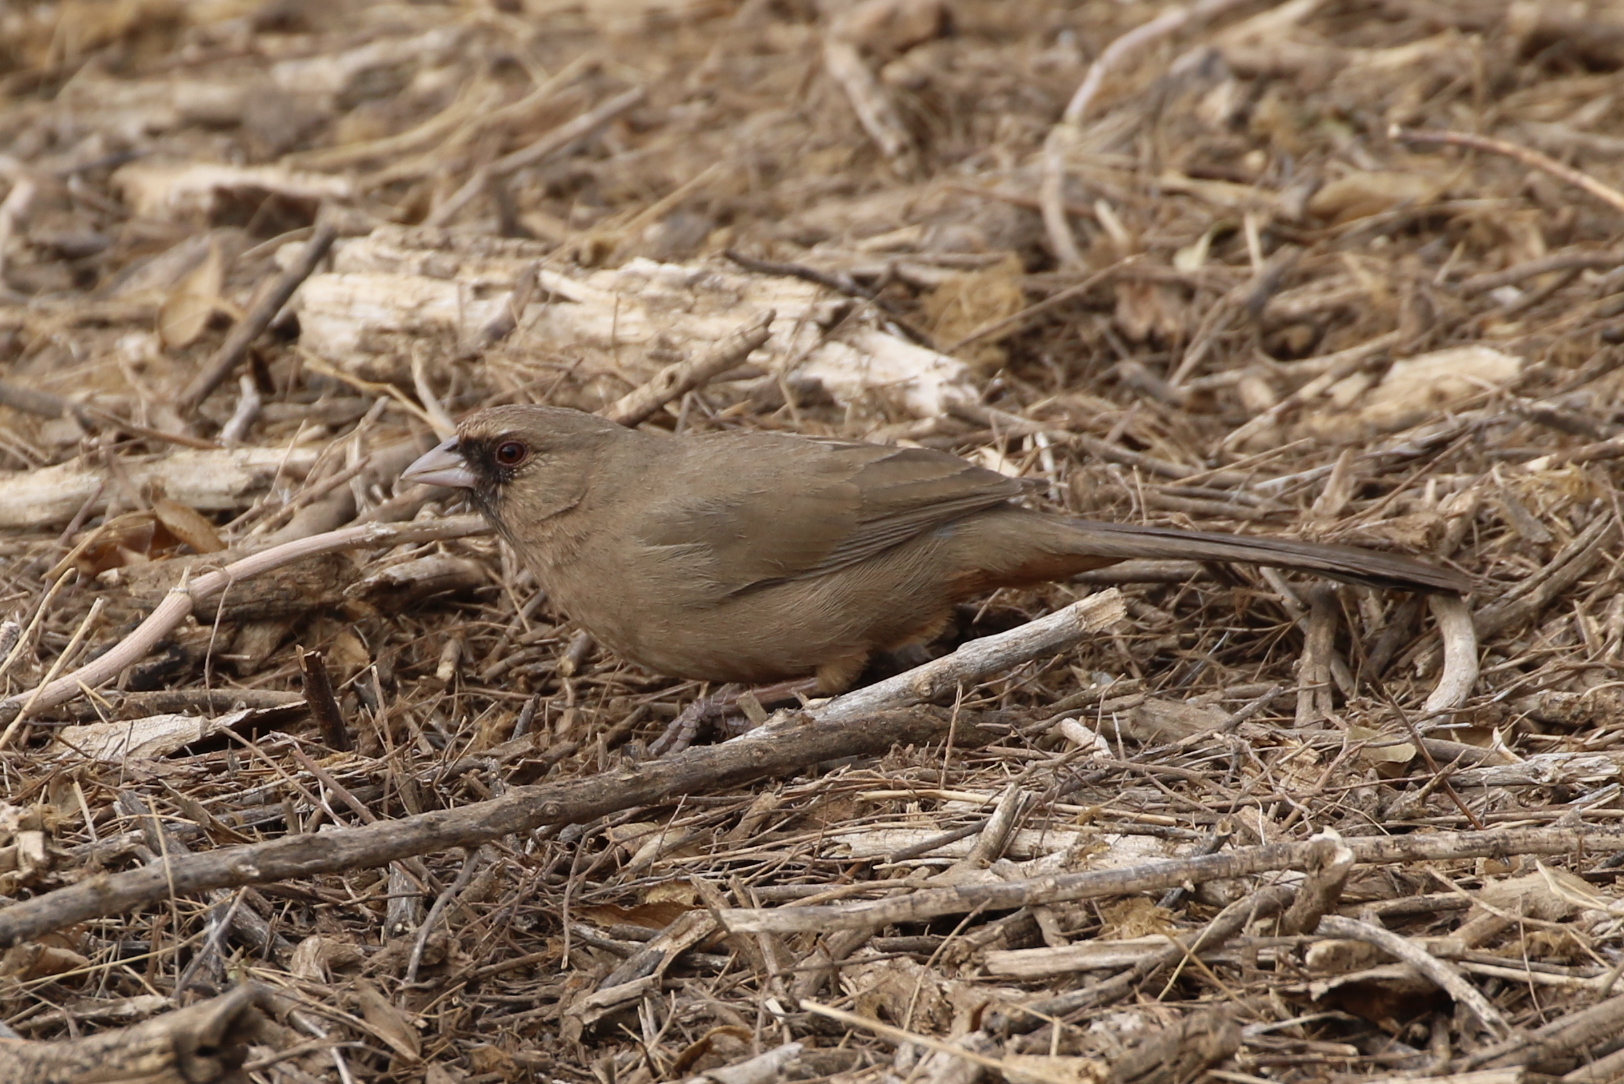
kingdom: Animalia
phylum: Chordata
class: Aves
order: Passeriformes
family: Passerellidae
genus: Melozone
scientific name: Melozone aberti
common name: Abert's towhee
